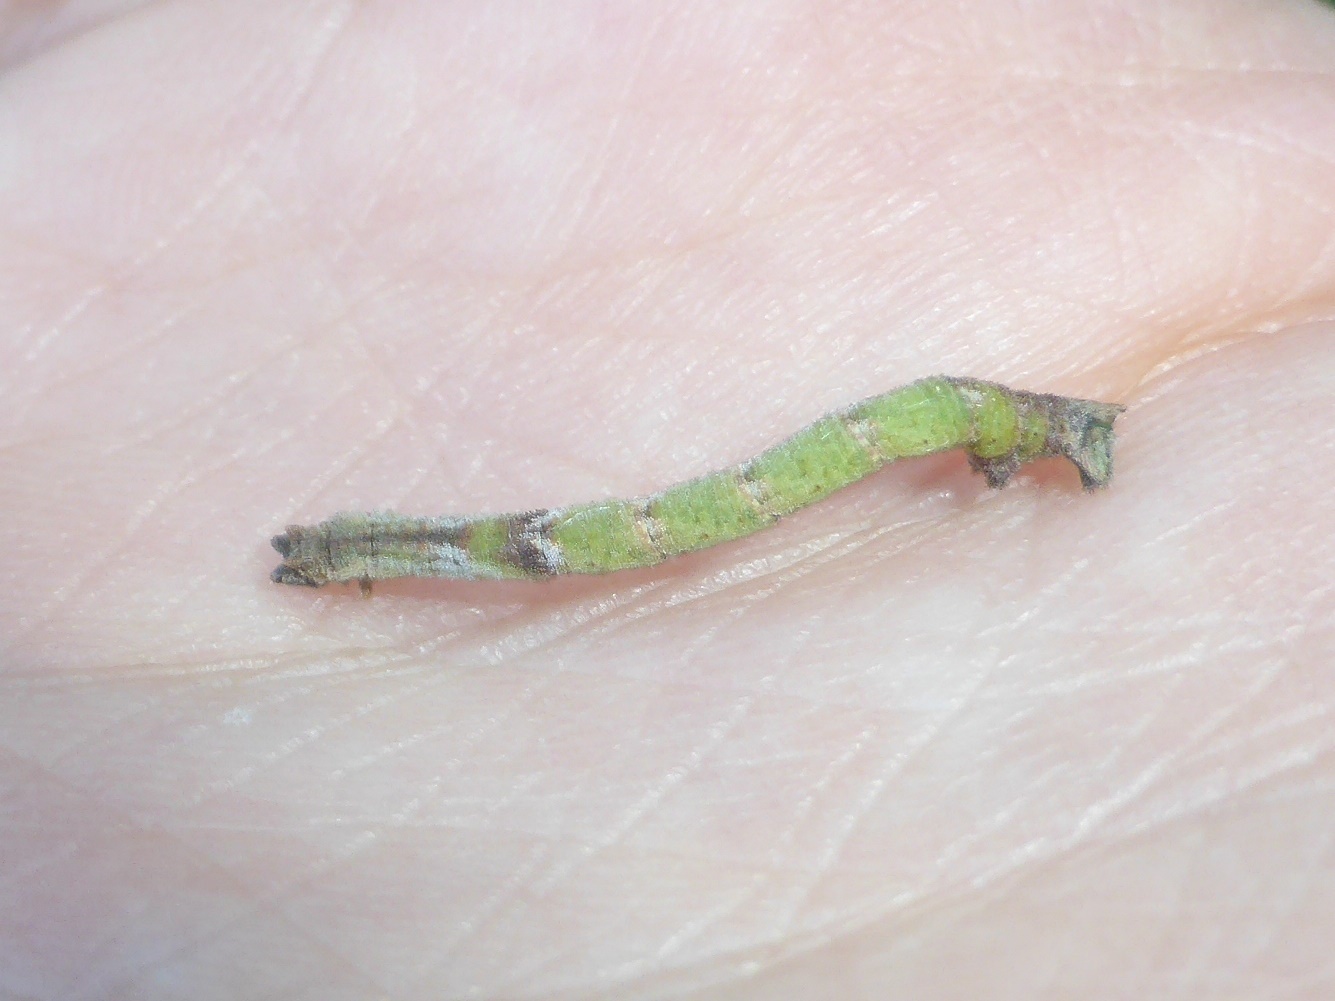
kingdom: Animalia
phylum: Arthropoda
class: Insecta
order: Lepidoptera
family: Geometridae
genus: Hemithea
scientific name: Hemithea aestivaria
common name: Common emerald
